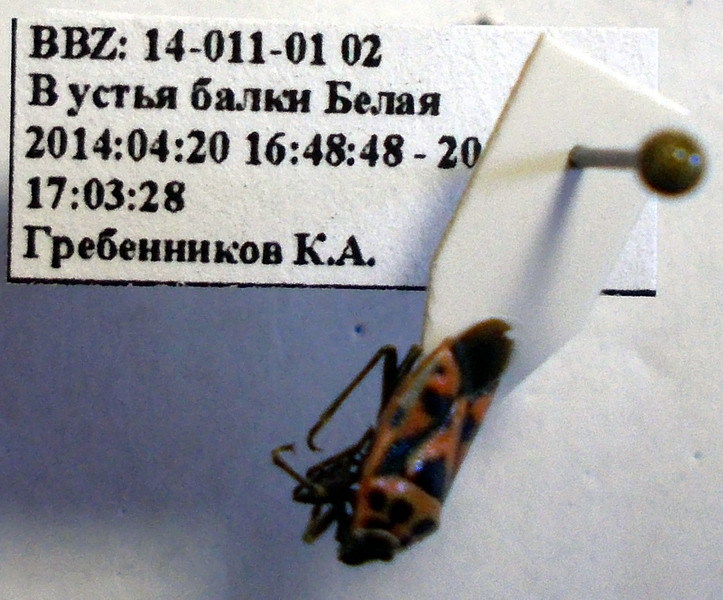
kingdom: Animalia
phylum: Arthropoda
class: Insecta
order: Hemiptera
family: Pentatomidae
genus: Eurydema
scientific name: Eurydema ornata
